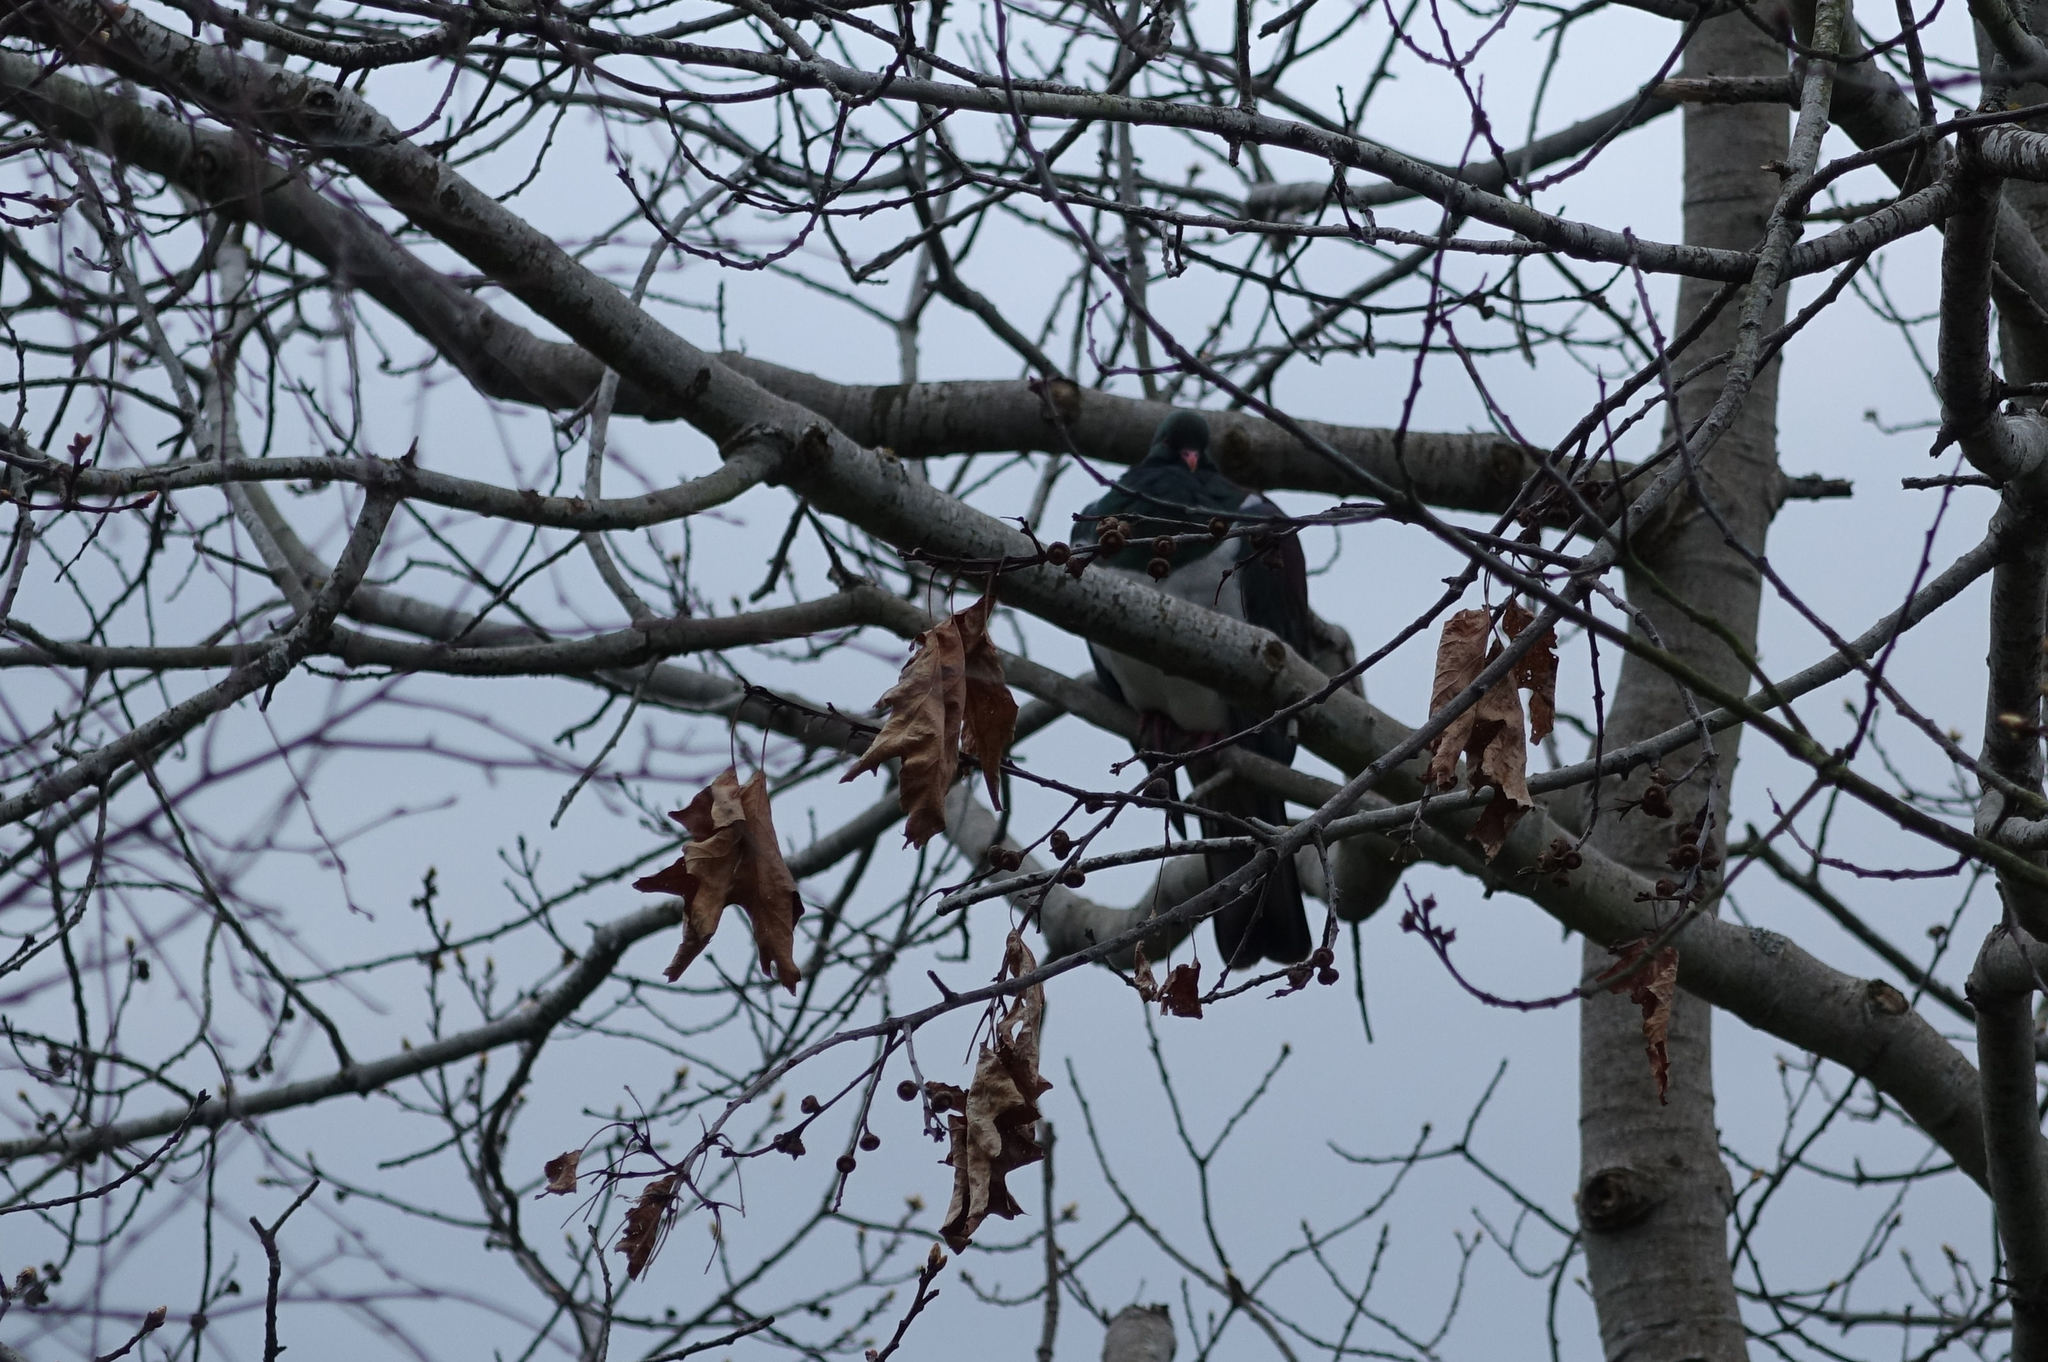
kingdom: Animalia
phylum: Chordata
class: Aves
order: Columbiformes
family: Columbidae
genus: Hemiphaga
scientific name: Hemiphaga novaeseelandiae
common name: New zealand pigeon
